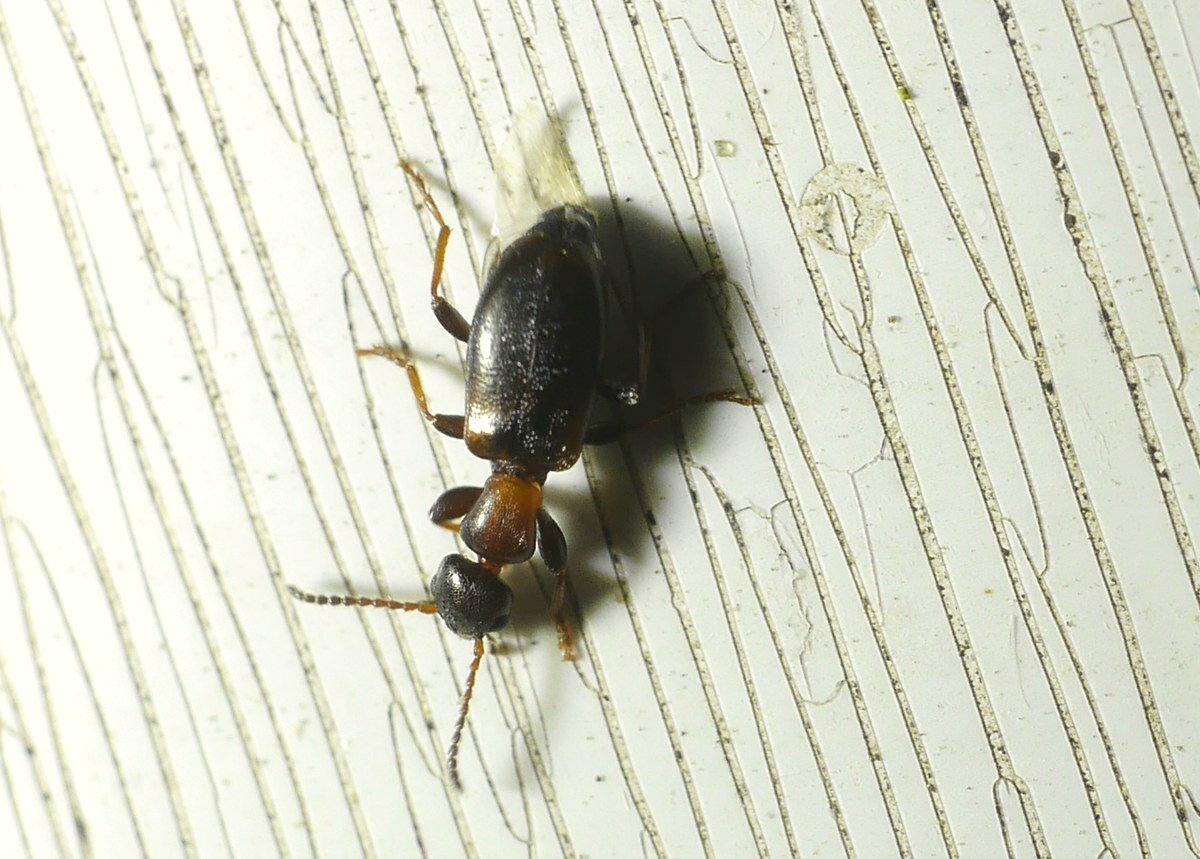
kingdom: Animalia
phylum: Arthropoda
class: Insecta
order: Coleoptera
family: Anthicidae
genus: Omonadus
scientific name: Omonadus floralis
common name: Narrownecked grain beetle
